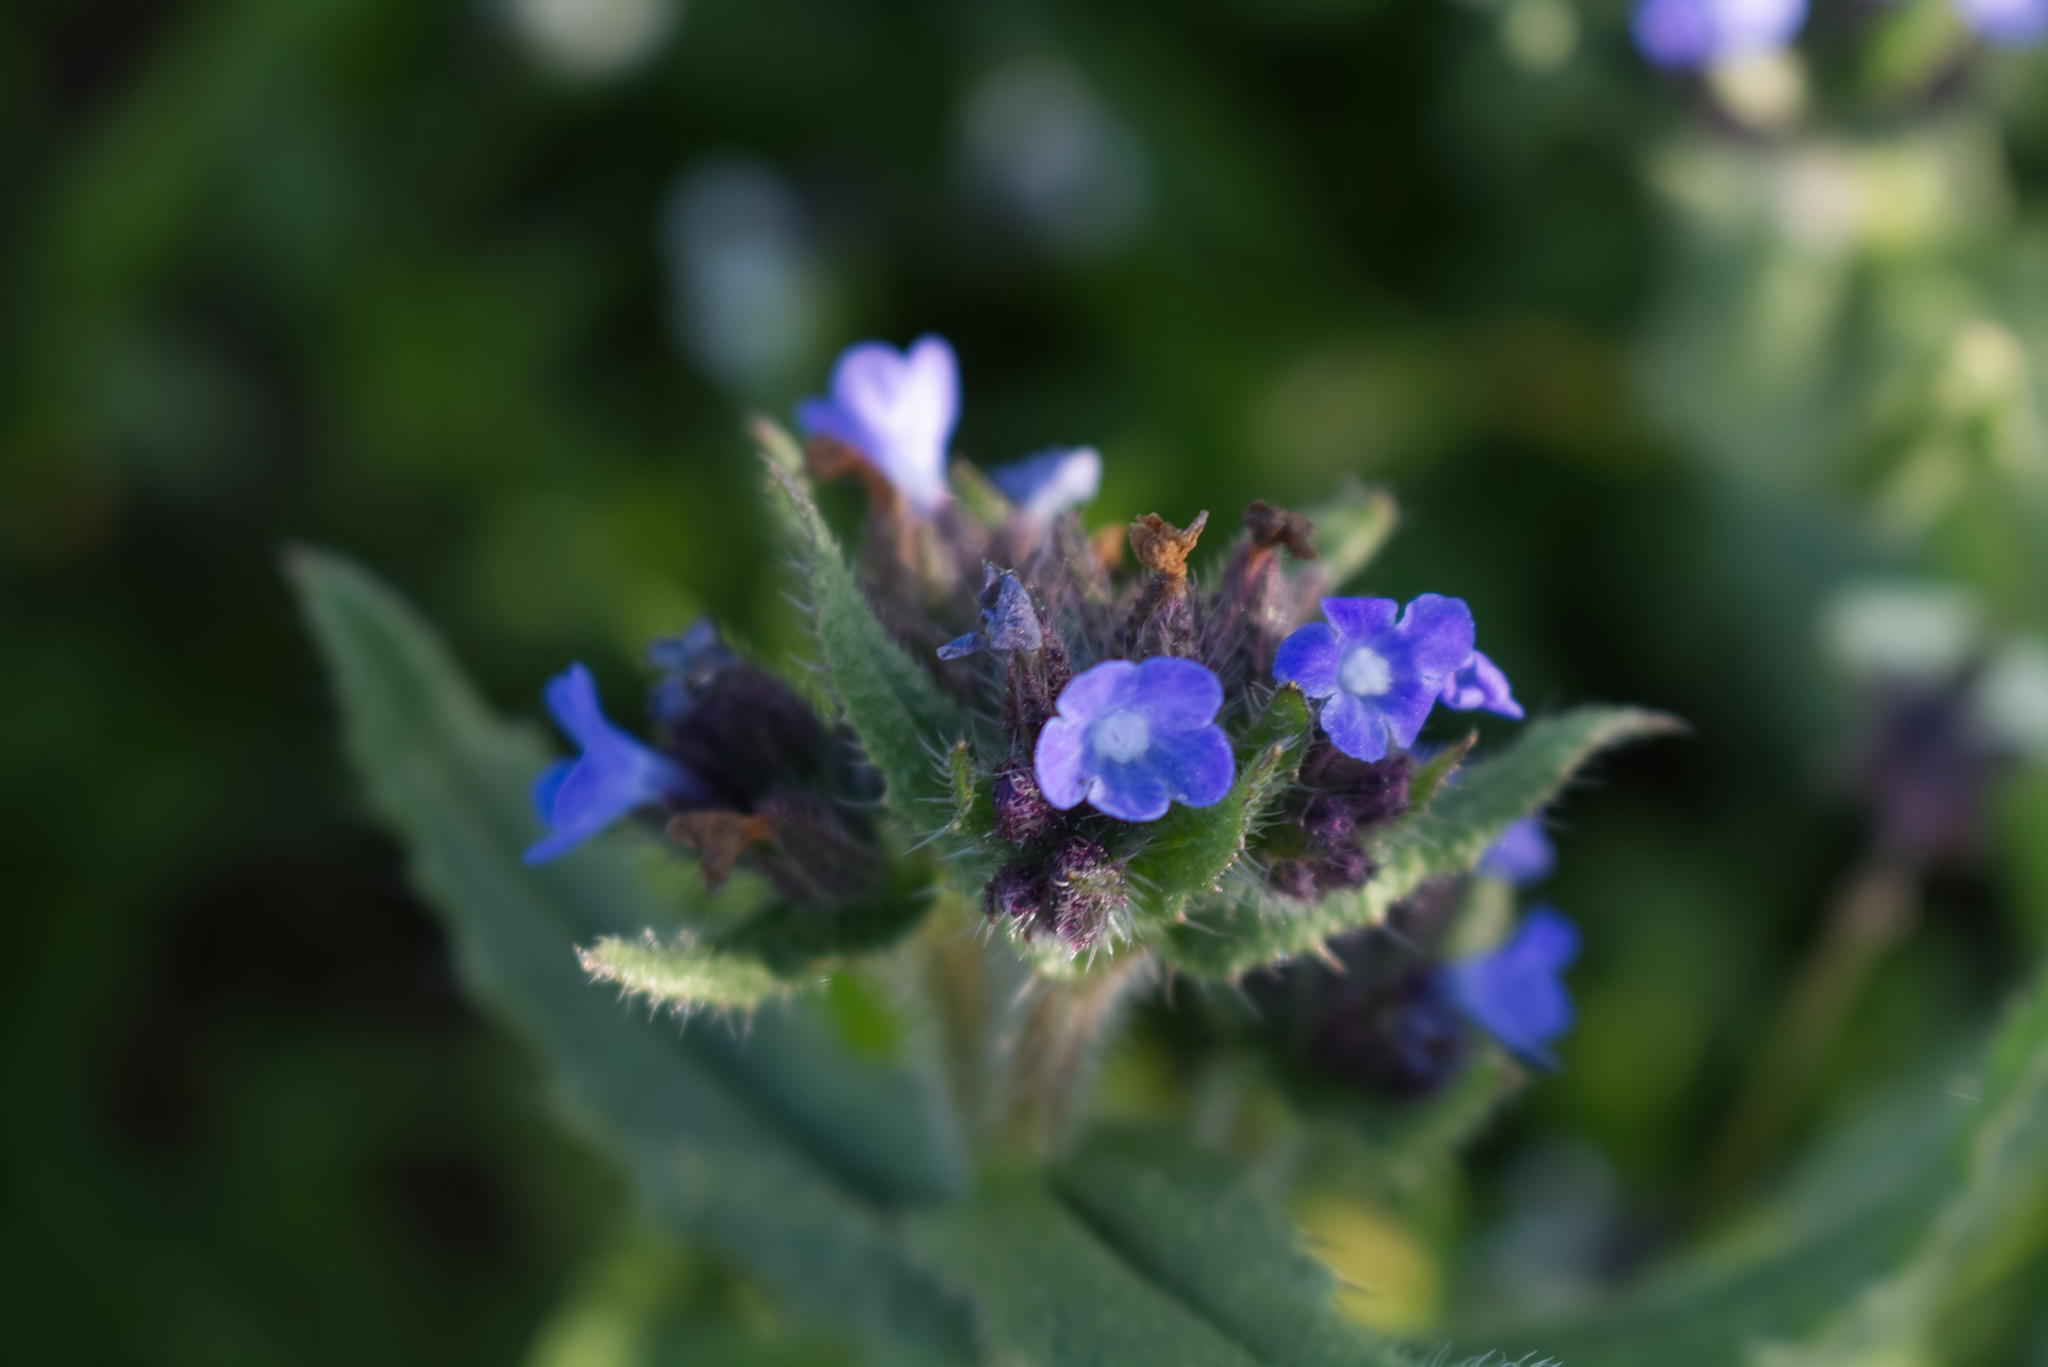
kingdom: Plantae
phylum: Tracheophyta
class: Magnoliopsida
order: Boraginales
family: Boraginaceae
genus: Lycopsis
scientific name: Lycopsis arvensis
